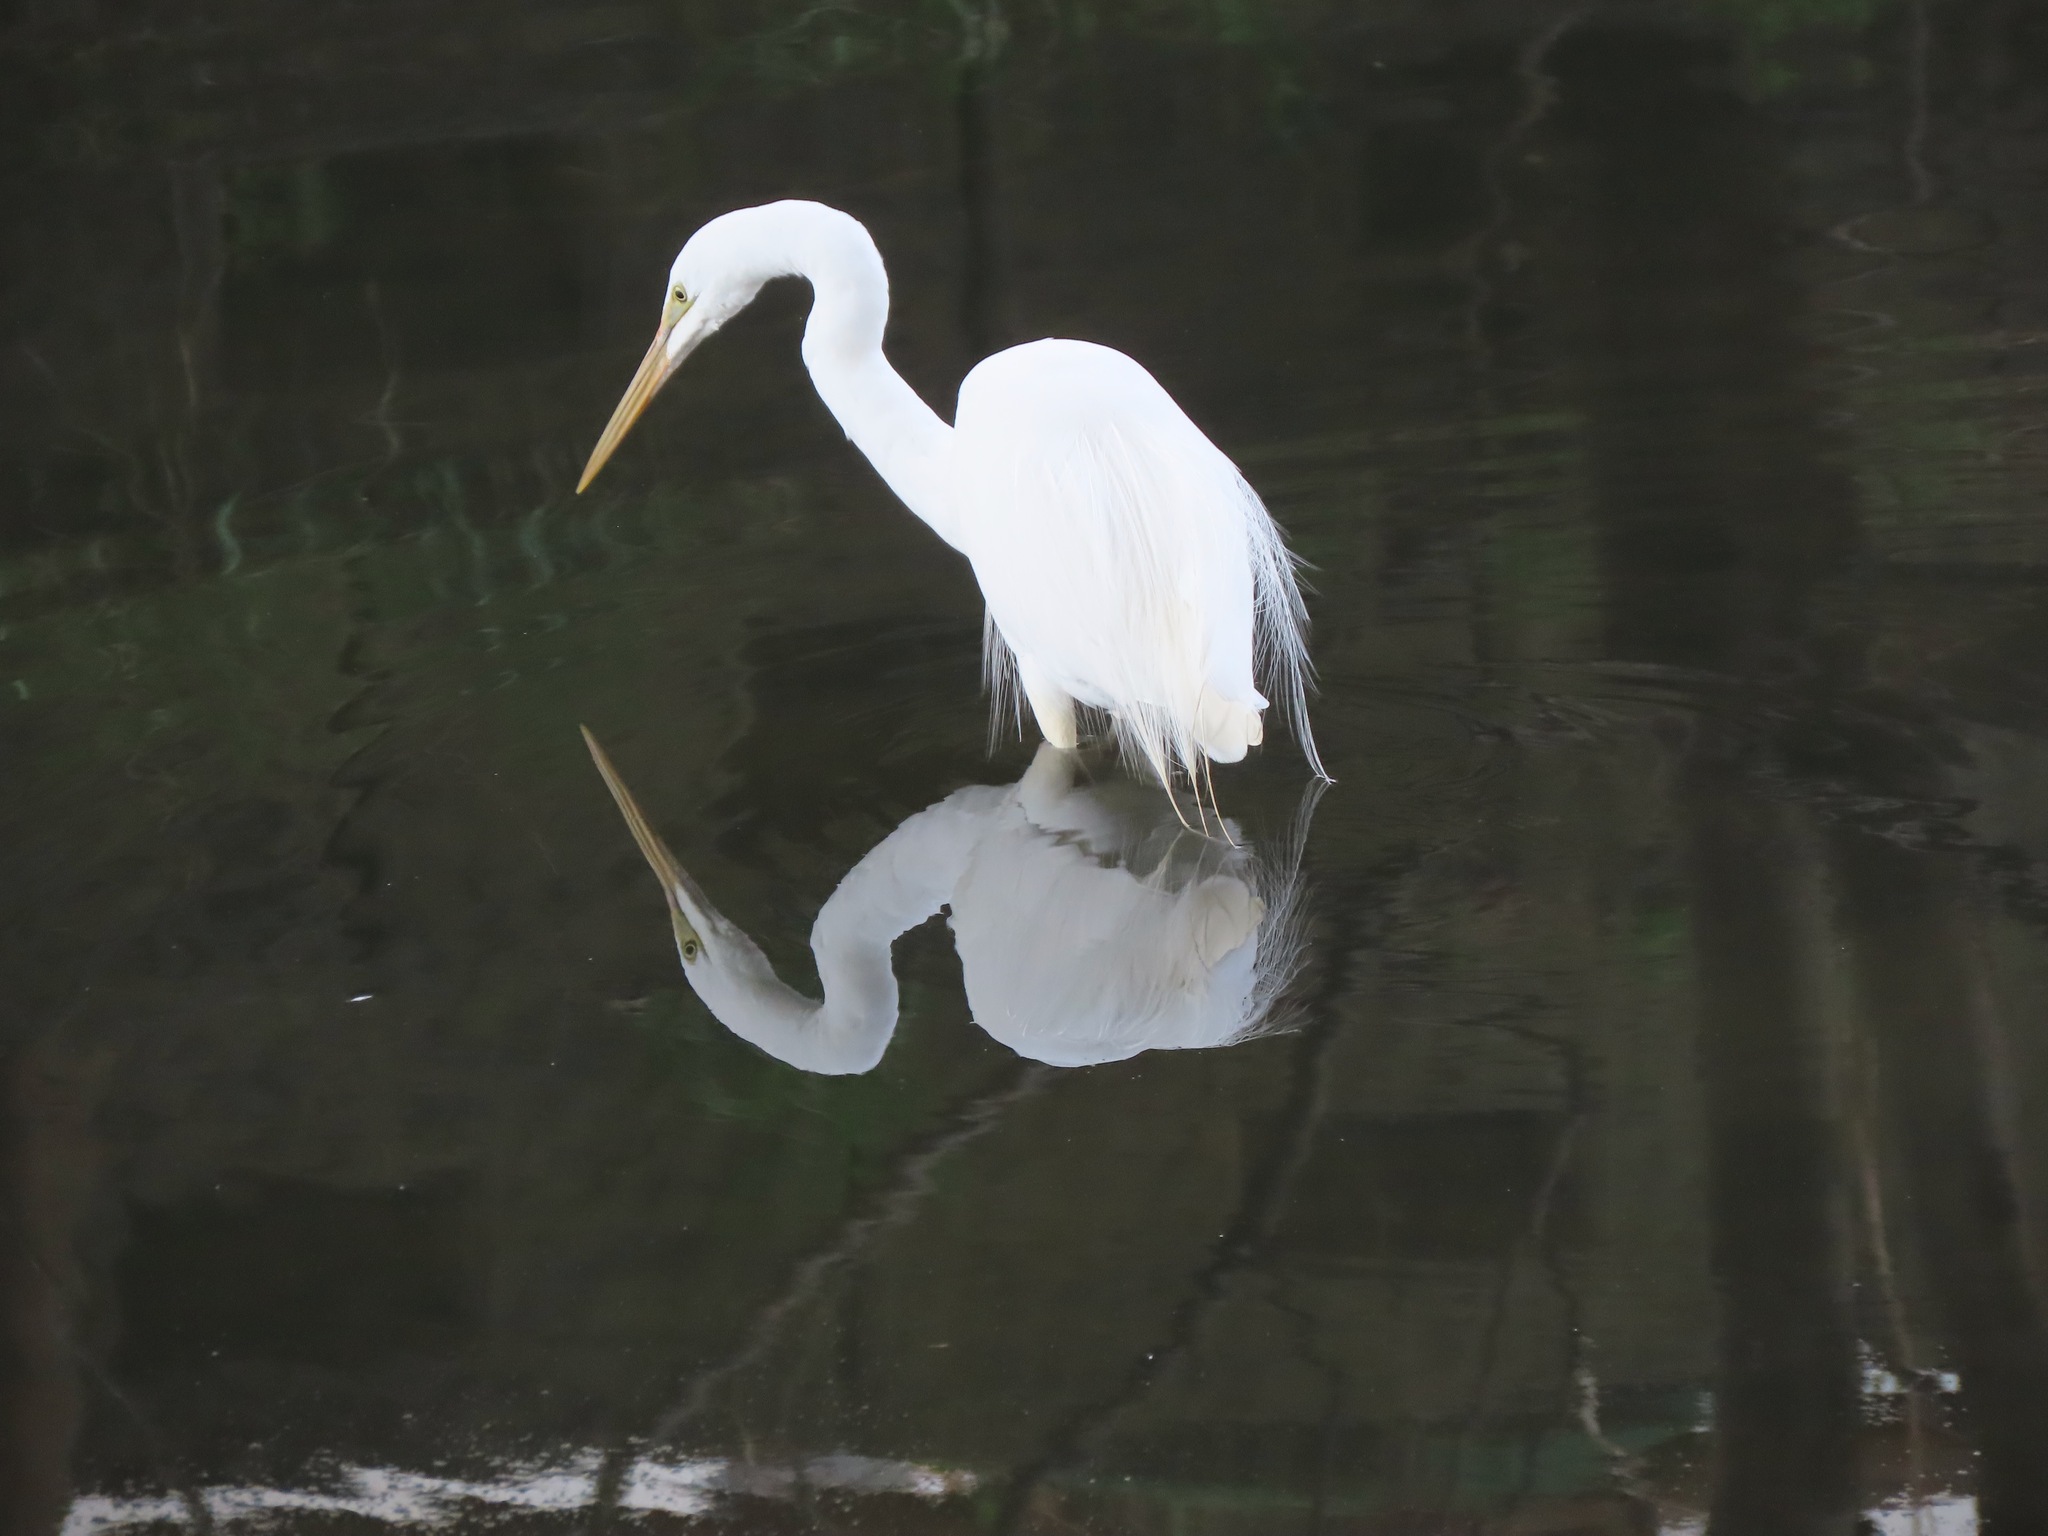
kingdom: Animalia
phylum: Chordata
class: Aves
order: Pelecaniformes
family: Ardeidae
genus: Ardea
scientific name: Ardea alba
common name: Great egret
